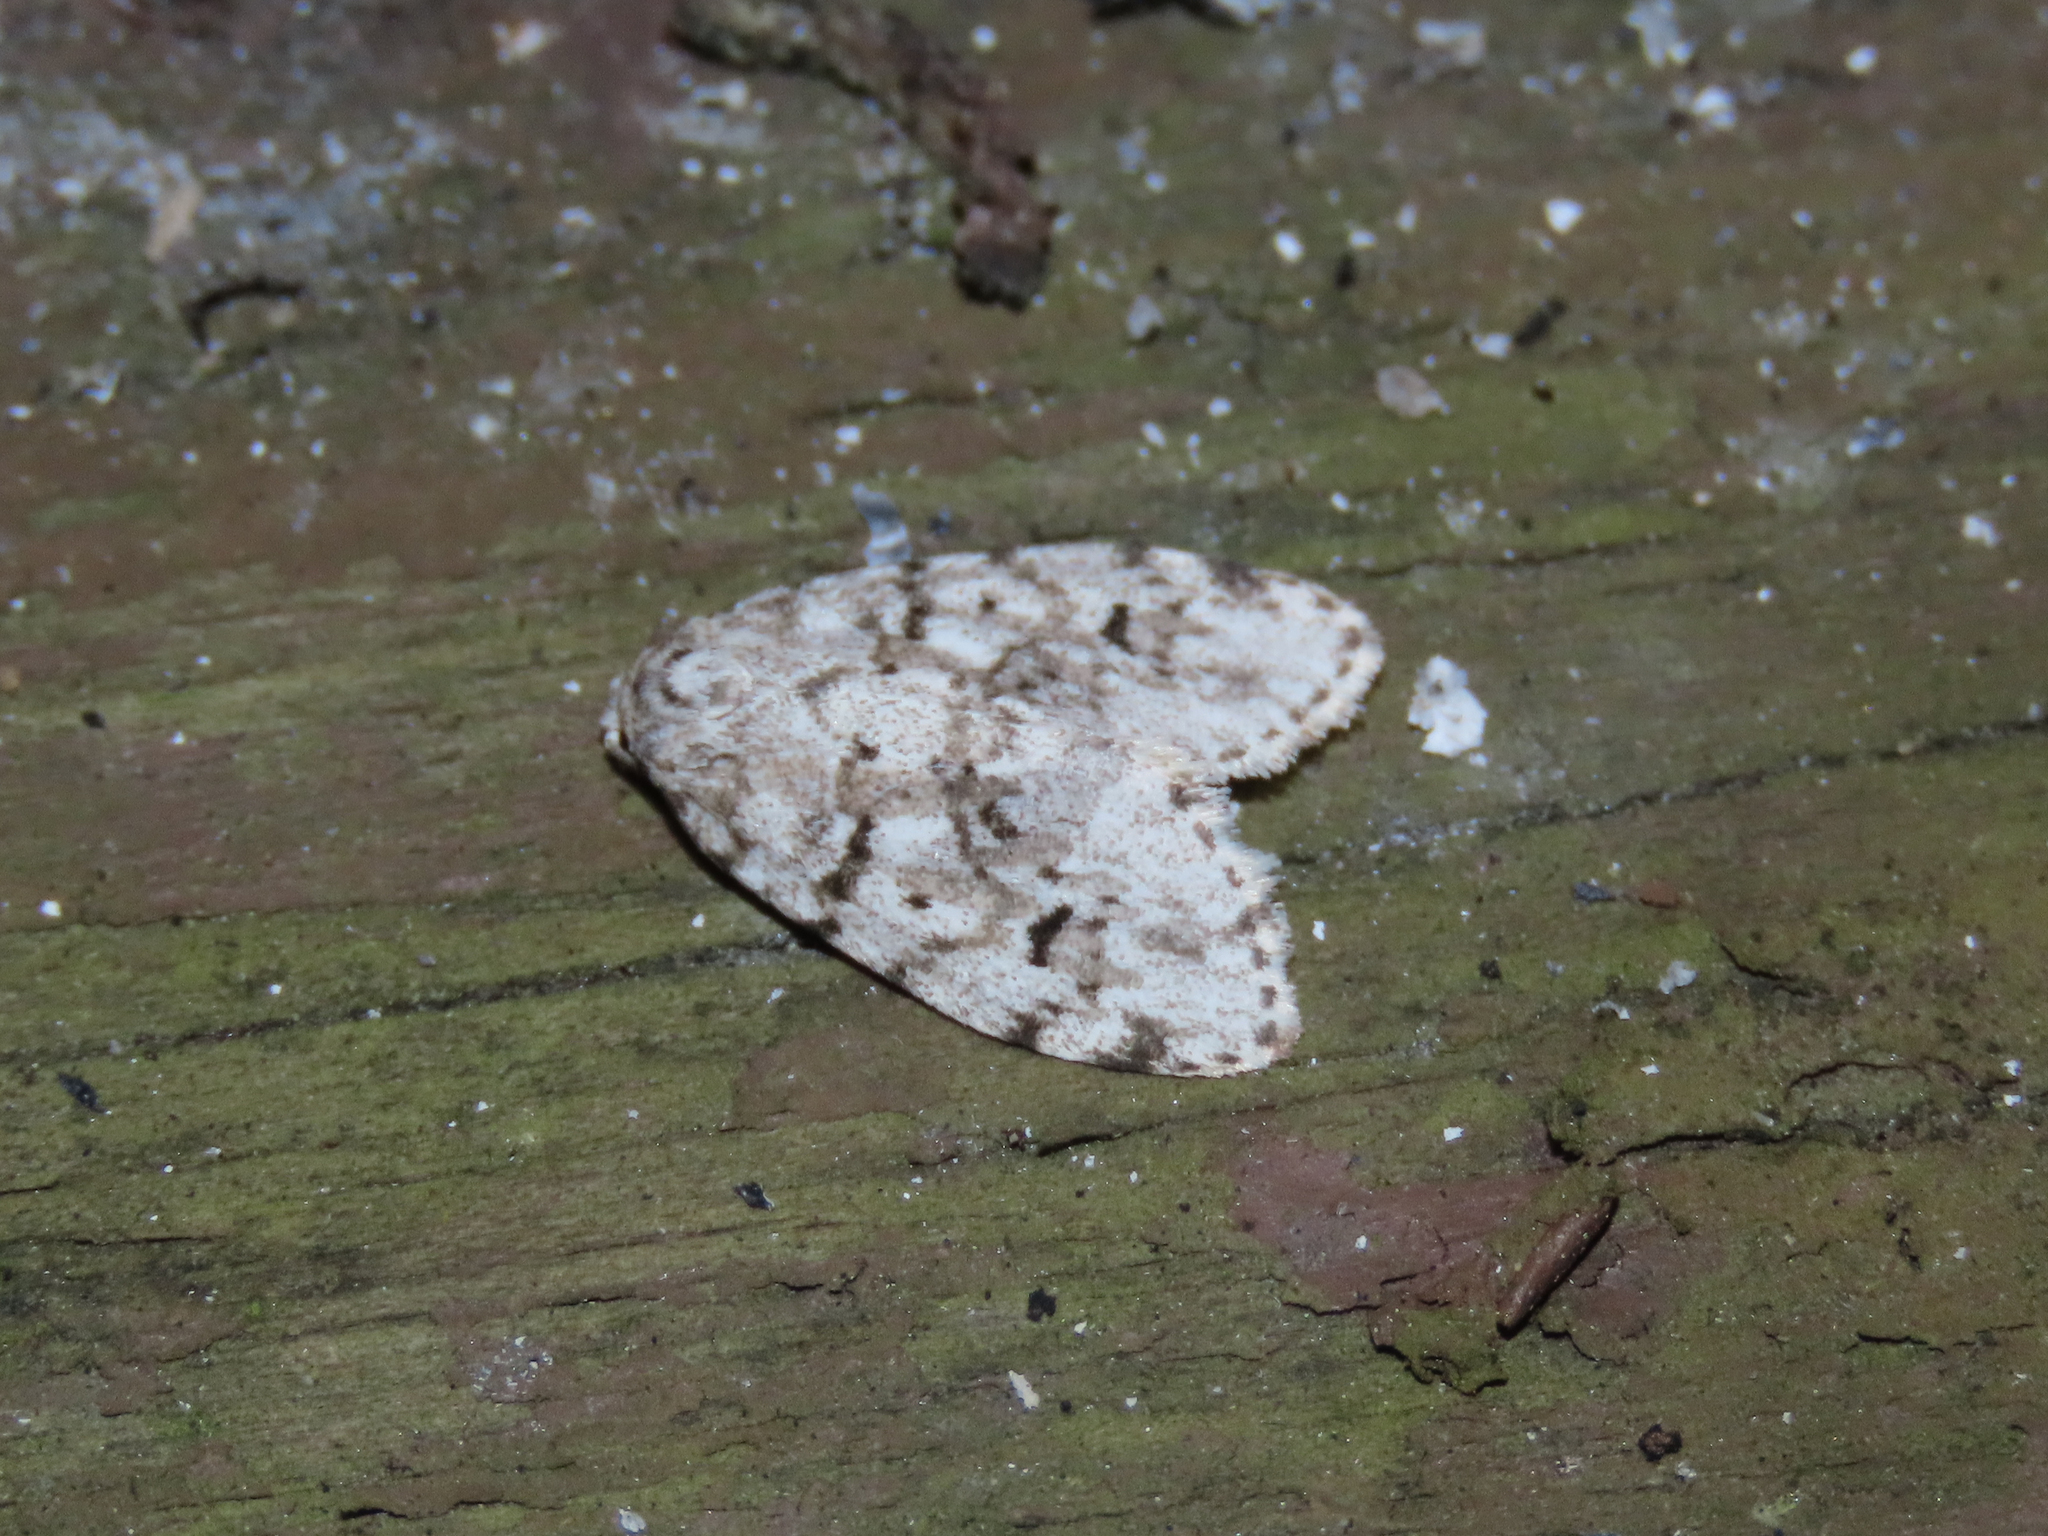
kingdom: Animalia
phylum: Arthropoda
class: Insecta
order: Lepidoptera
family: Erebidae
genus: Clemensia
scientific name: Clemensia albata
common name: Little white lichen moth
